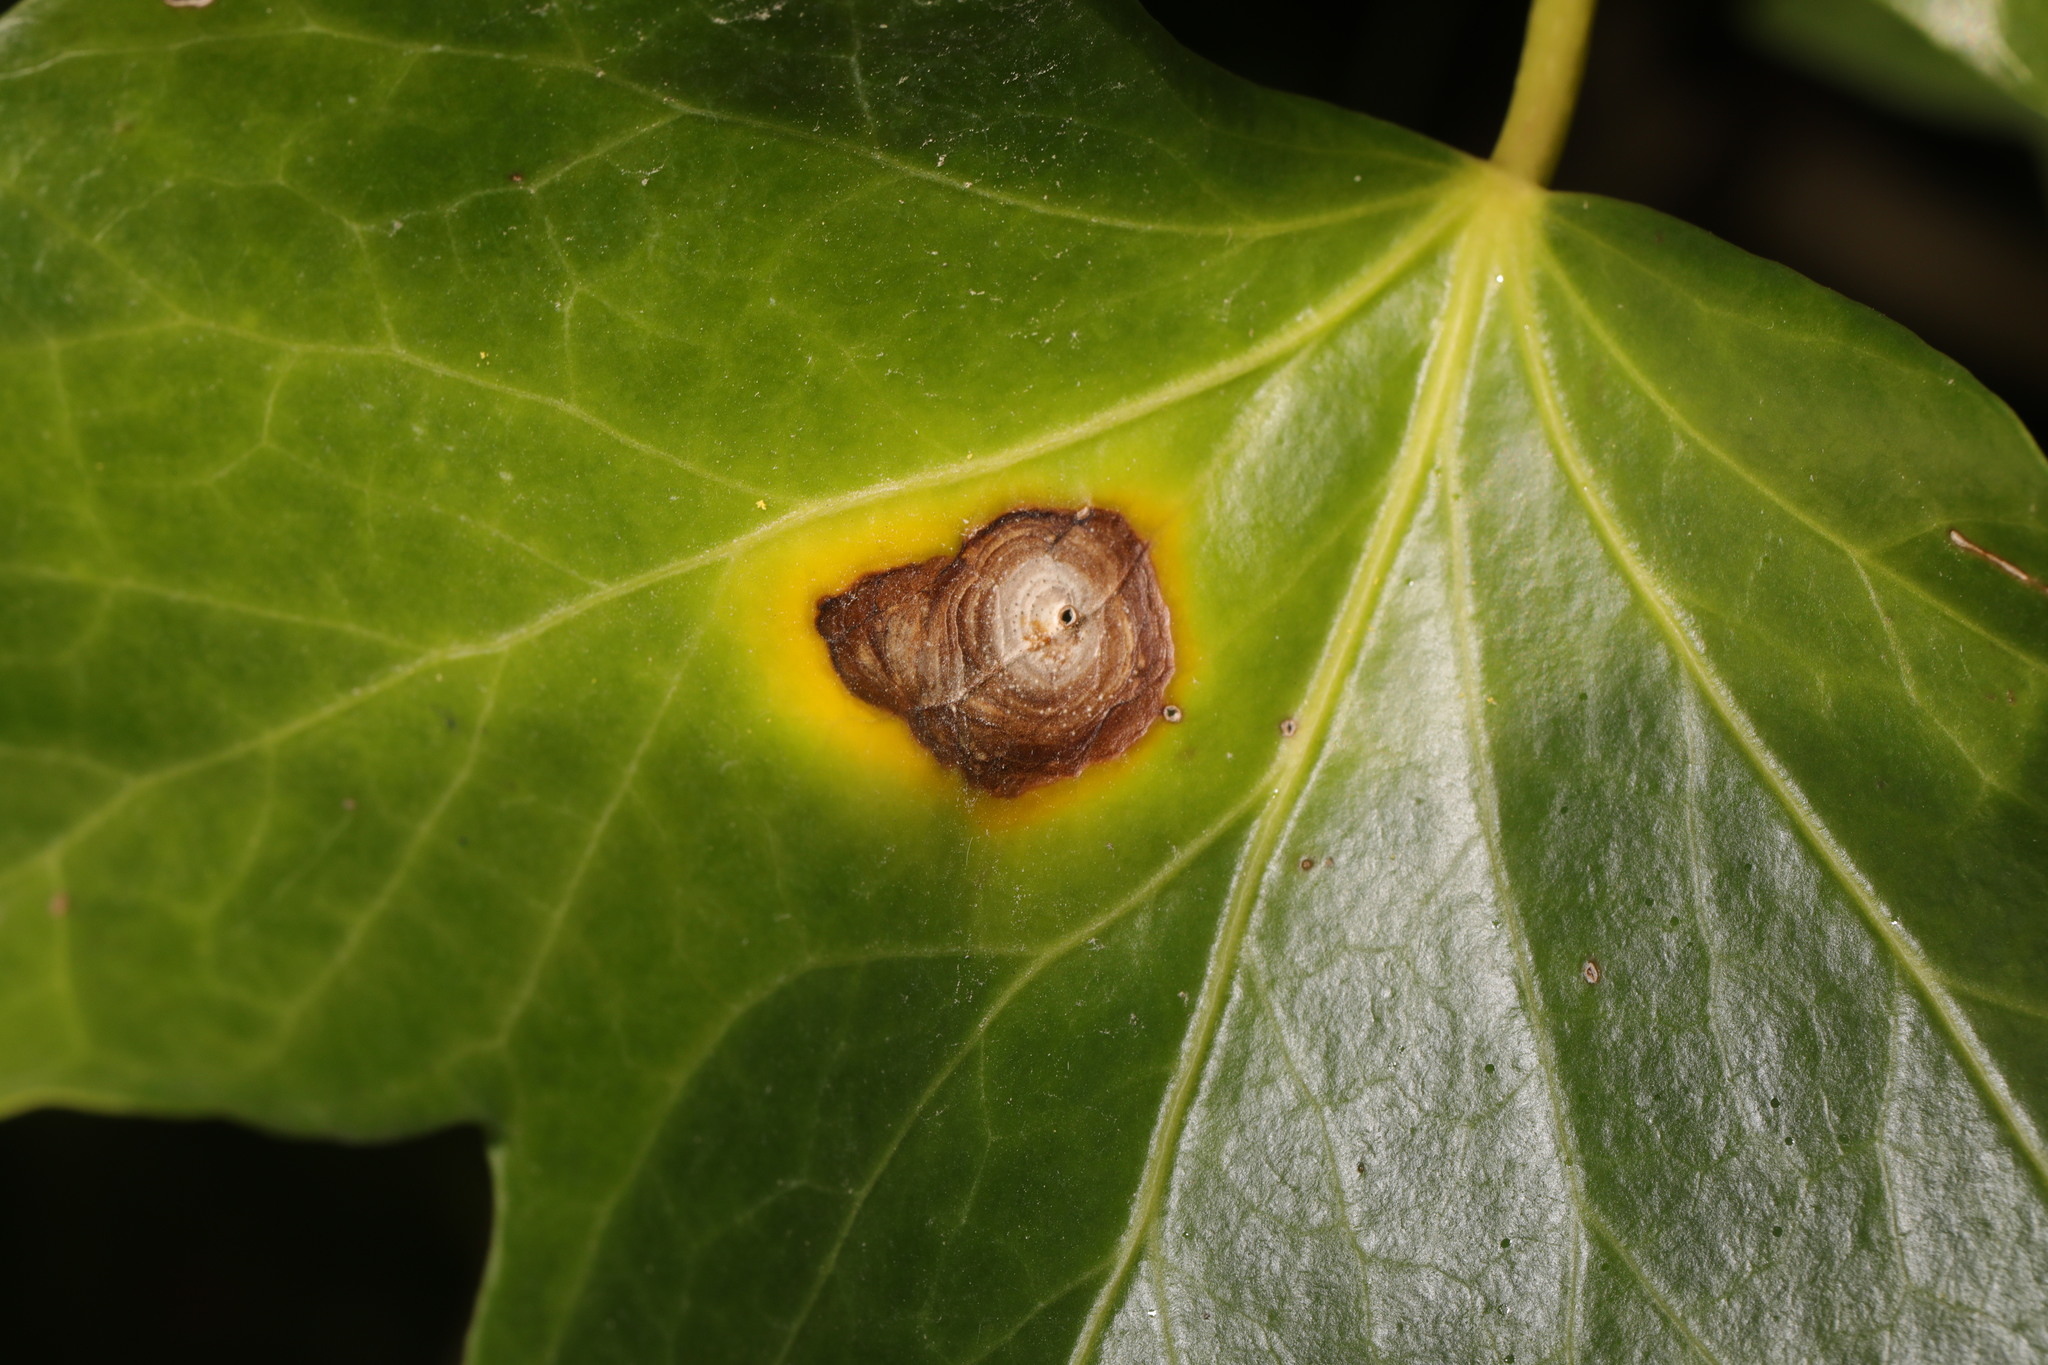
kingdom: Fungi
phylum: Ascomycota
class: Dothideomycetes
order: Pleosporales
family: Didymellaceae
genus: Boeremia
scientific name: Boeremia hedericola
